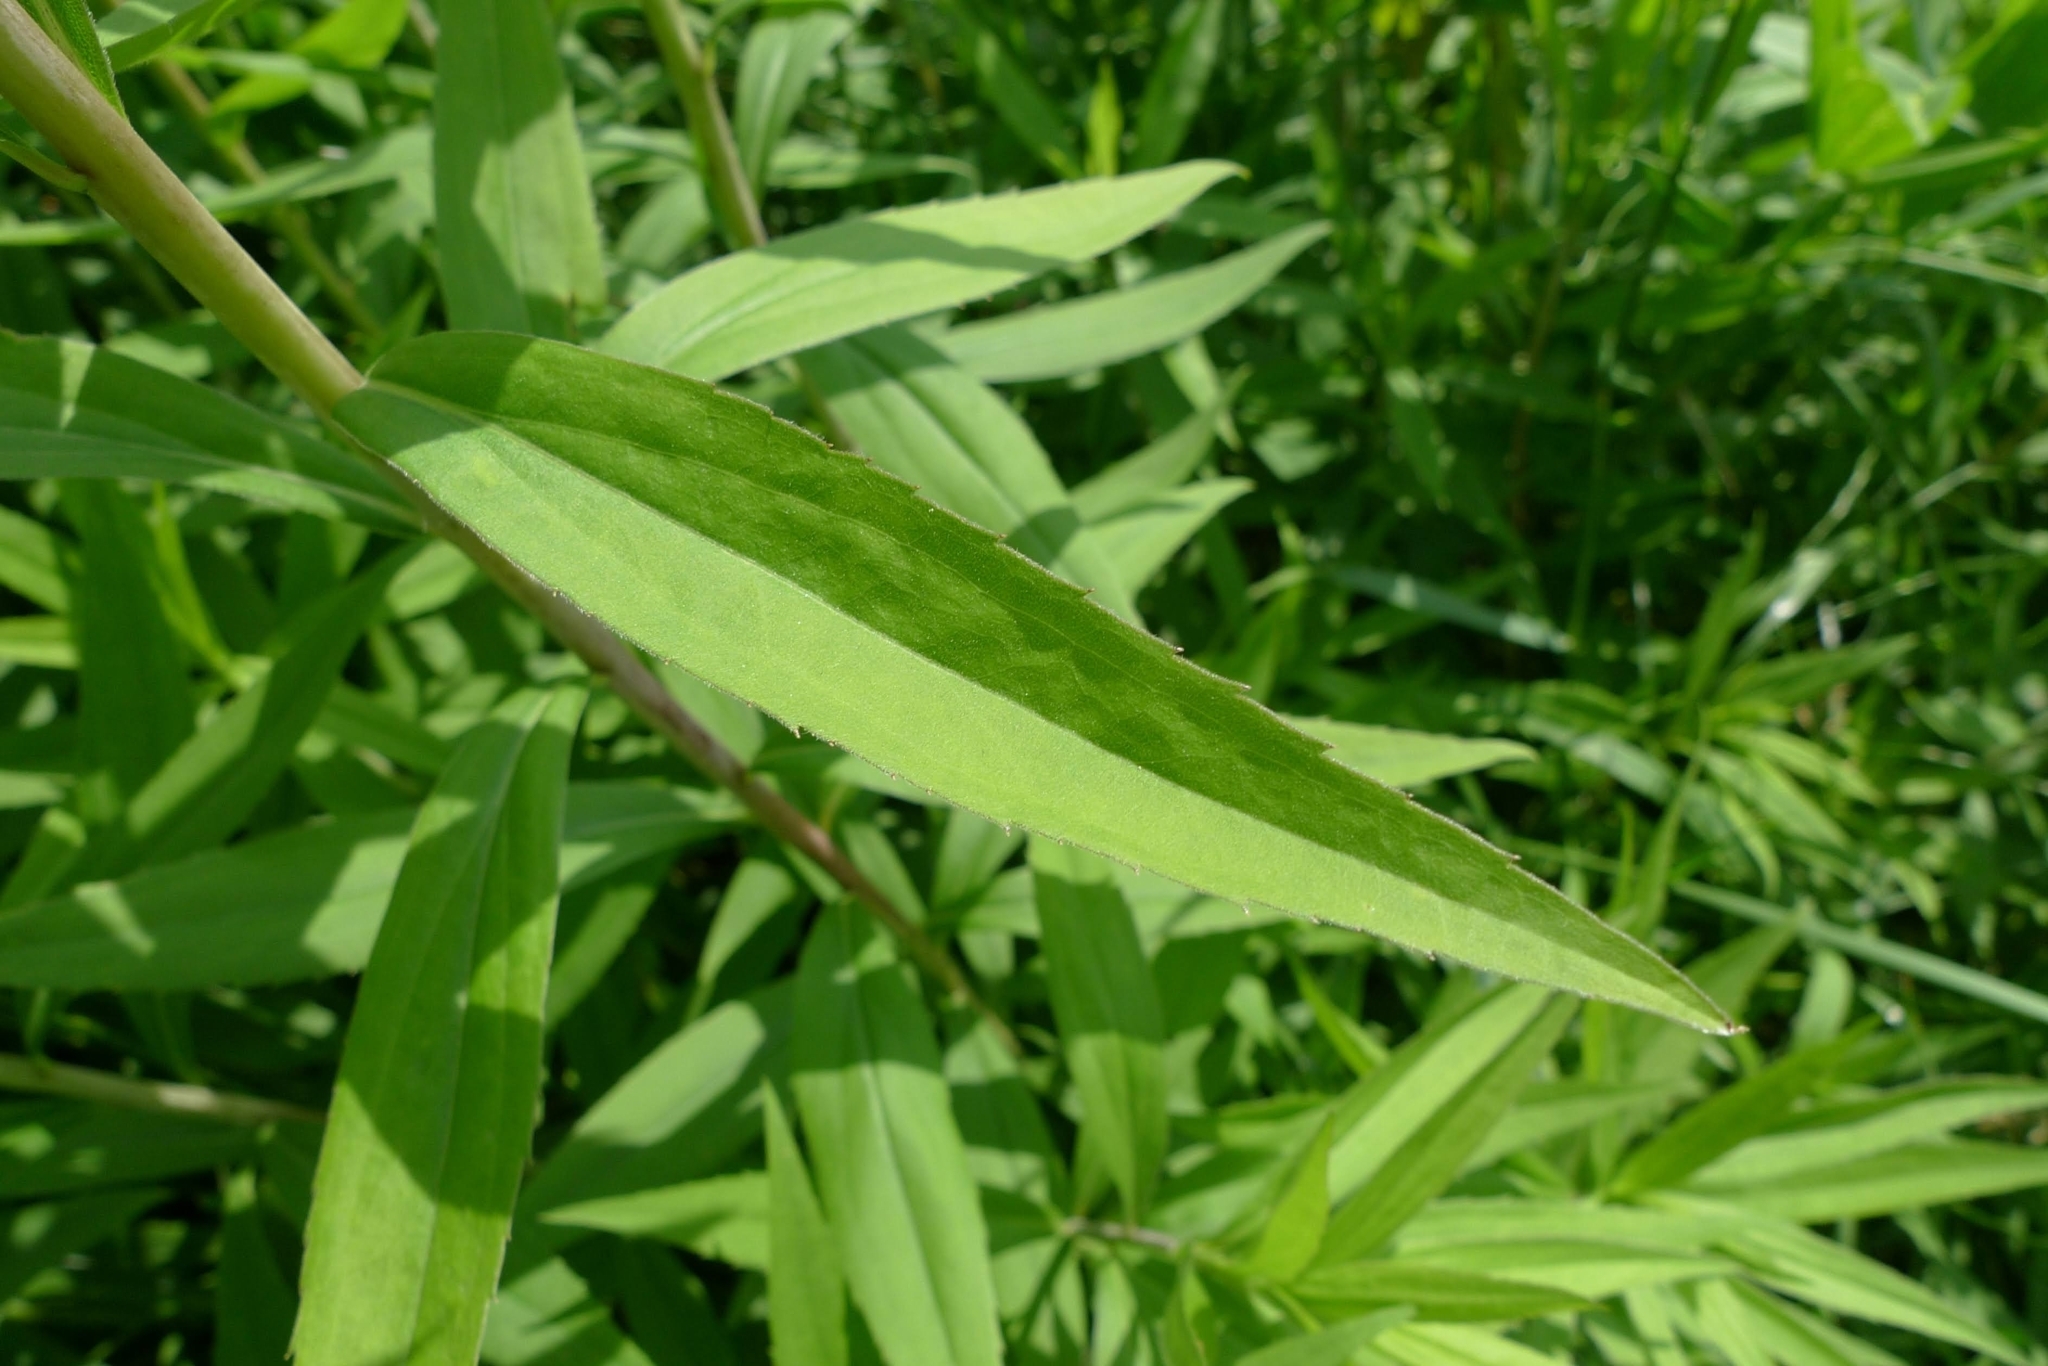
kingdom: Plantae
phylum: Tracheophyta
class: Magnoliopsida
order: Asterales
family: Asteraceae
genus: Solidago
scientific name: Solidago gigantea
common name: Giant goldenrod
